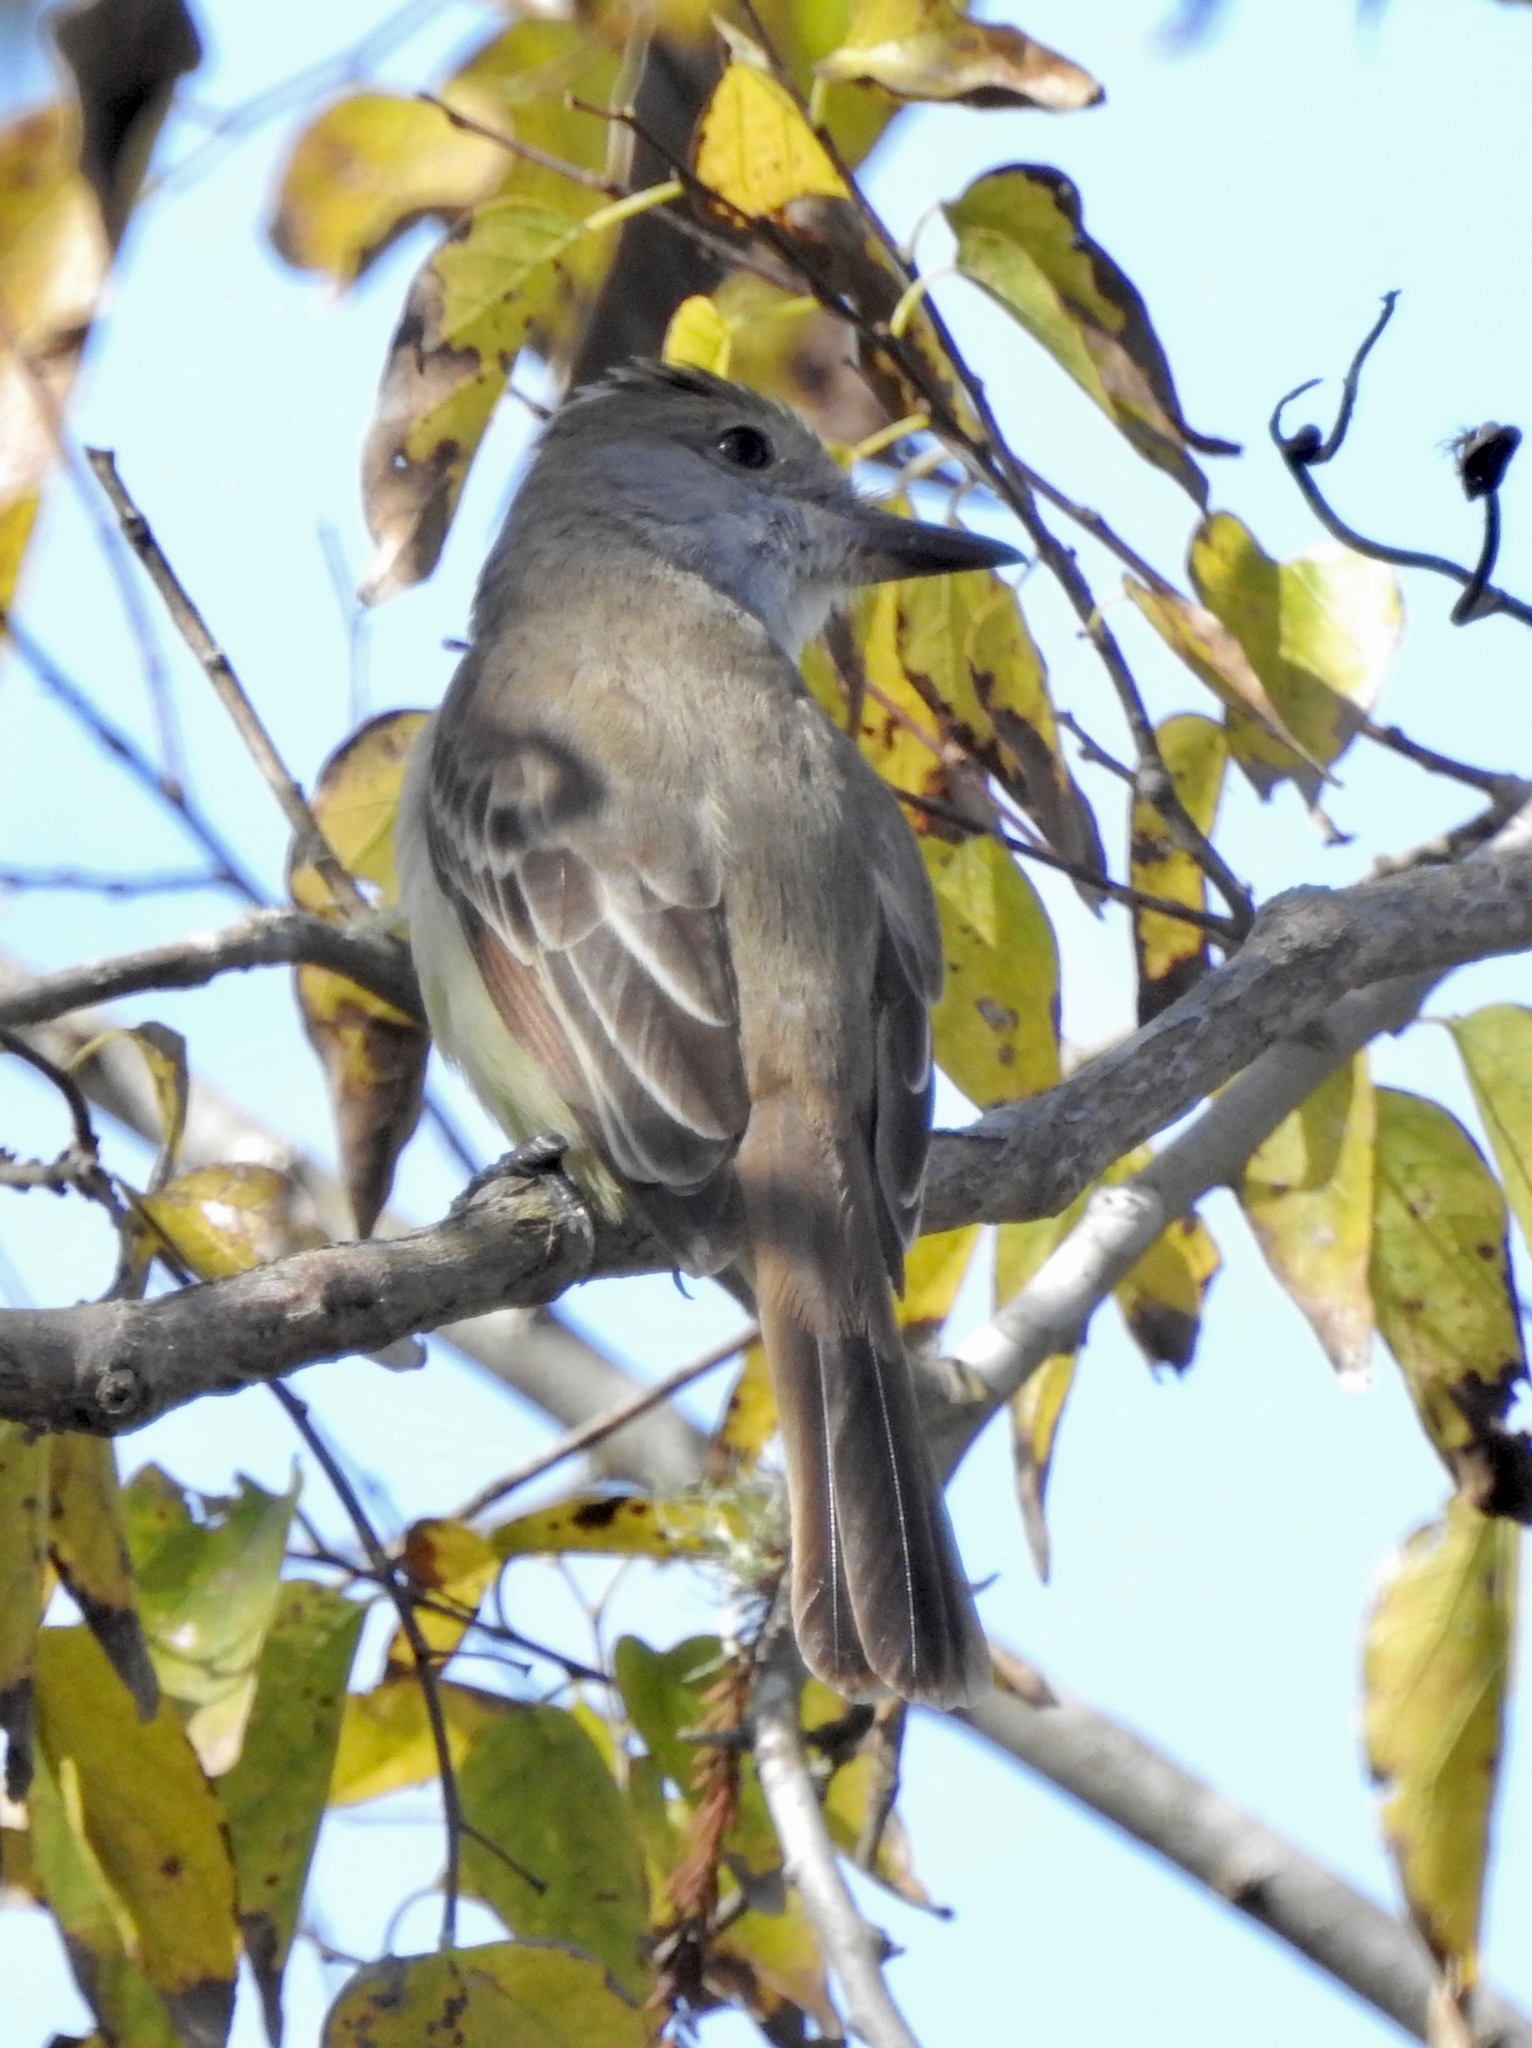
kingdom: Animalia
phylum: Chordata
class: Aves
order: Passeriformes
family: Tyrannidae
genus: Myiarchus
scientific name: Myiarchus tyrannulus
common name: Brown-crested flycatcher
